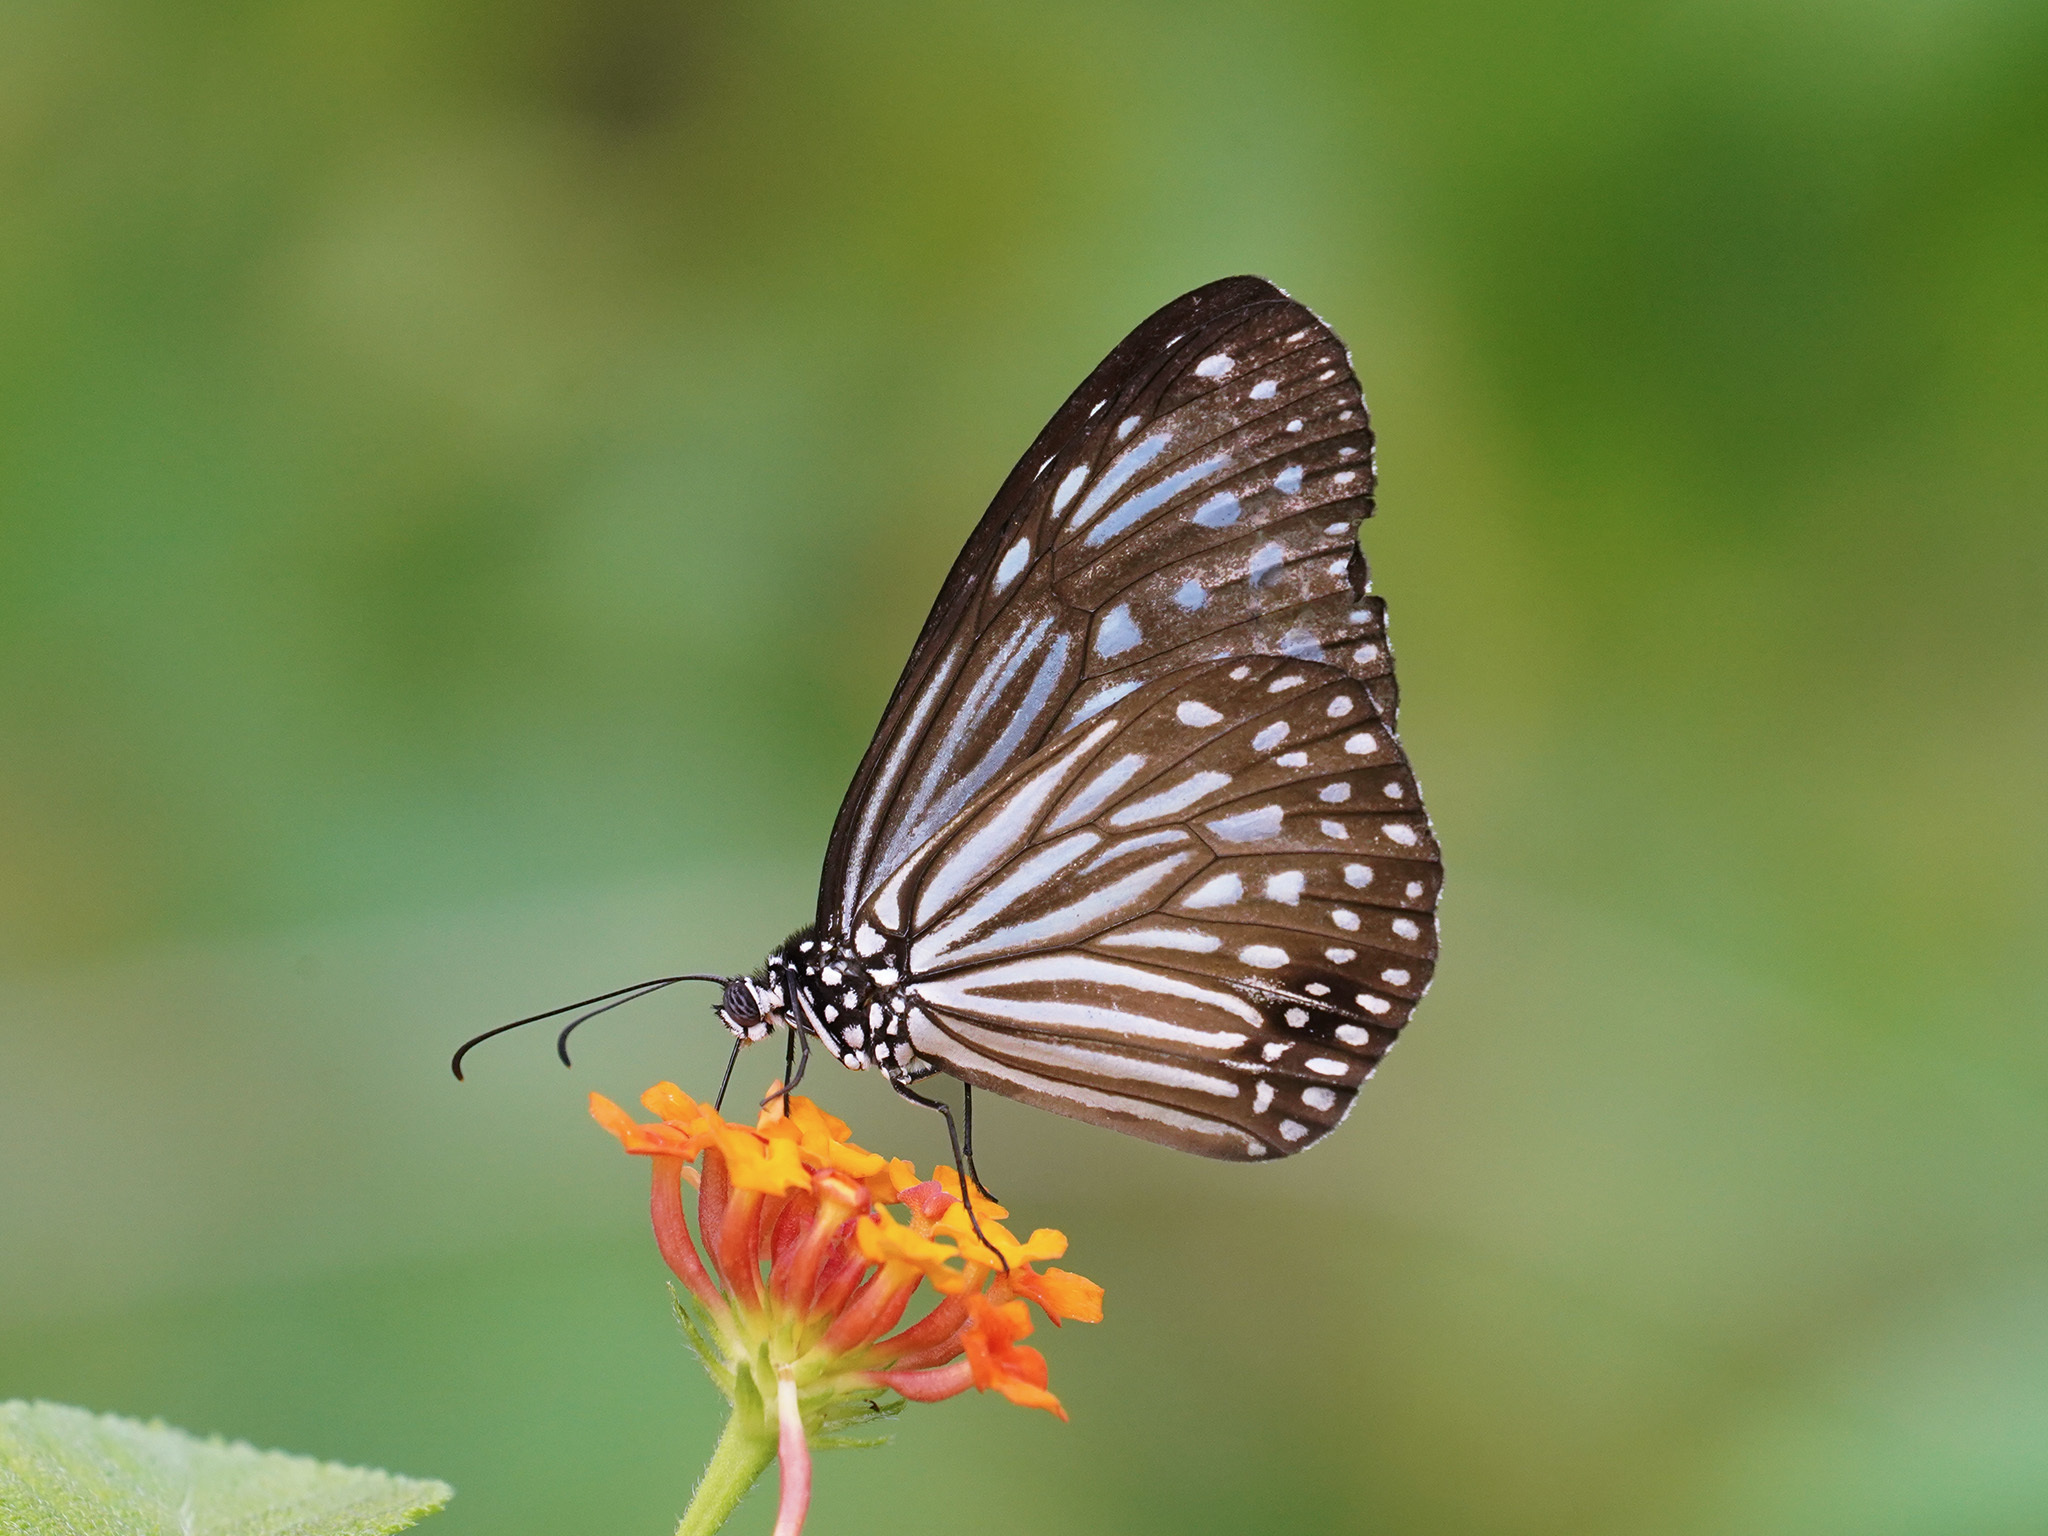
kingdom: Animalia
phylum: Arthropoda
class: Insecta
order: Lepidoptera
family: Nymphalidae
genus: Parantica
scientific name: Parantica agleoides
